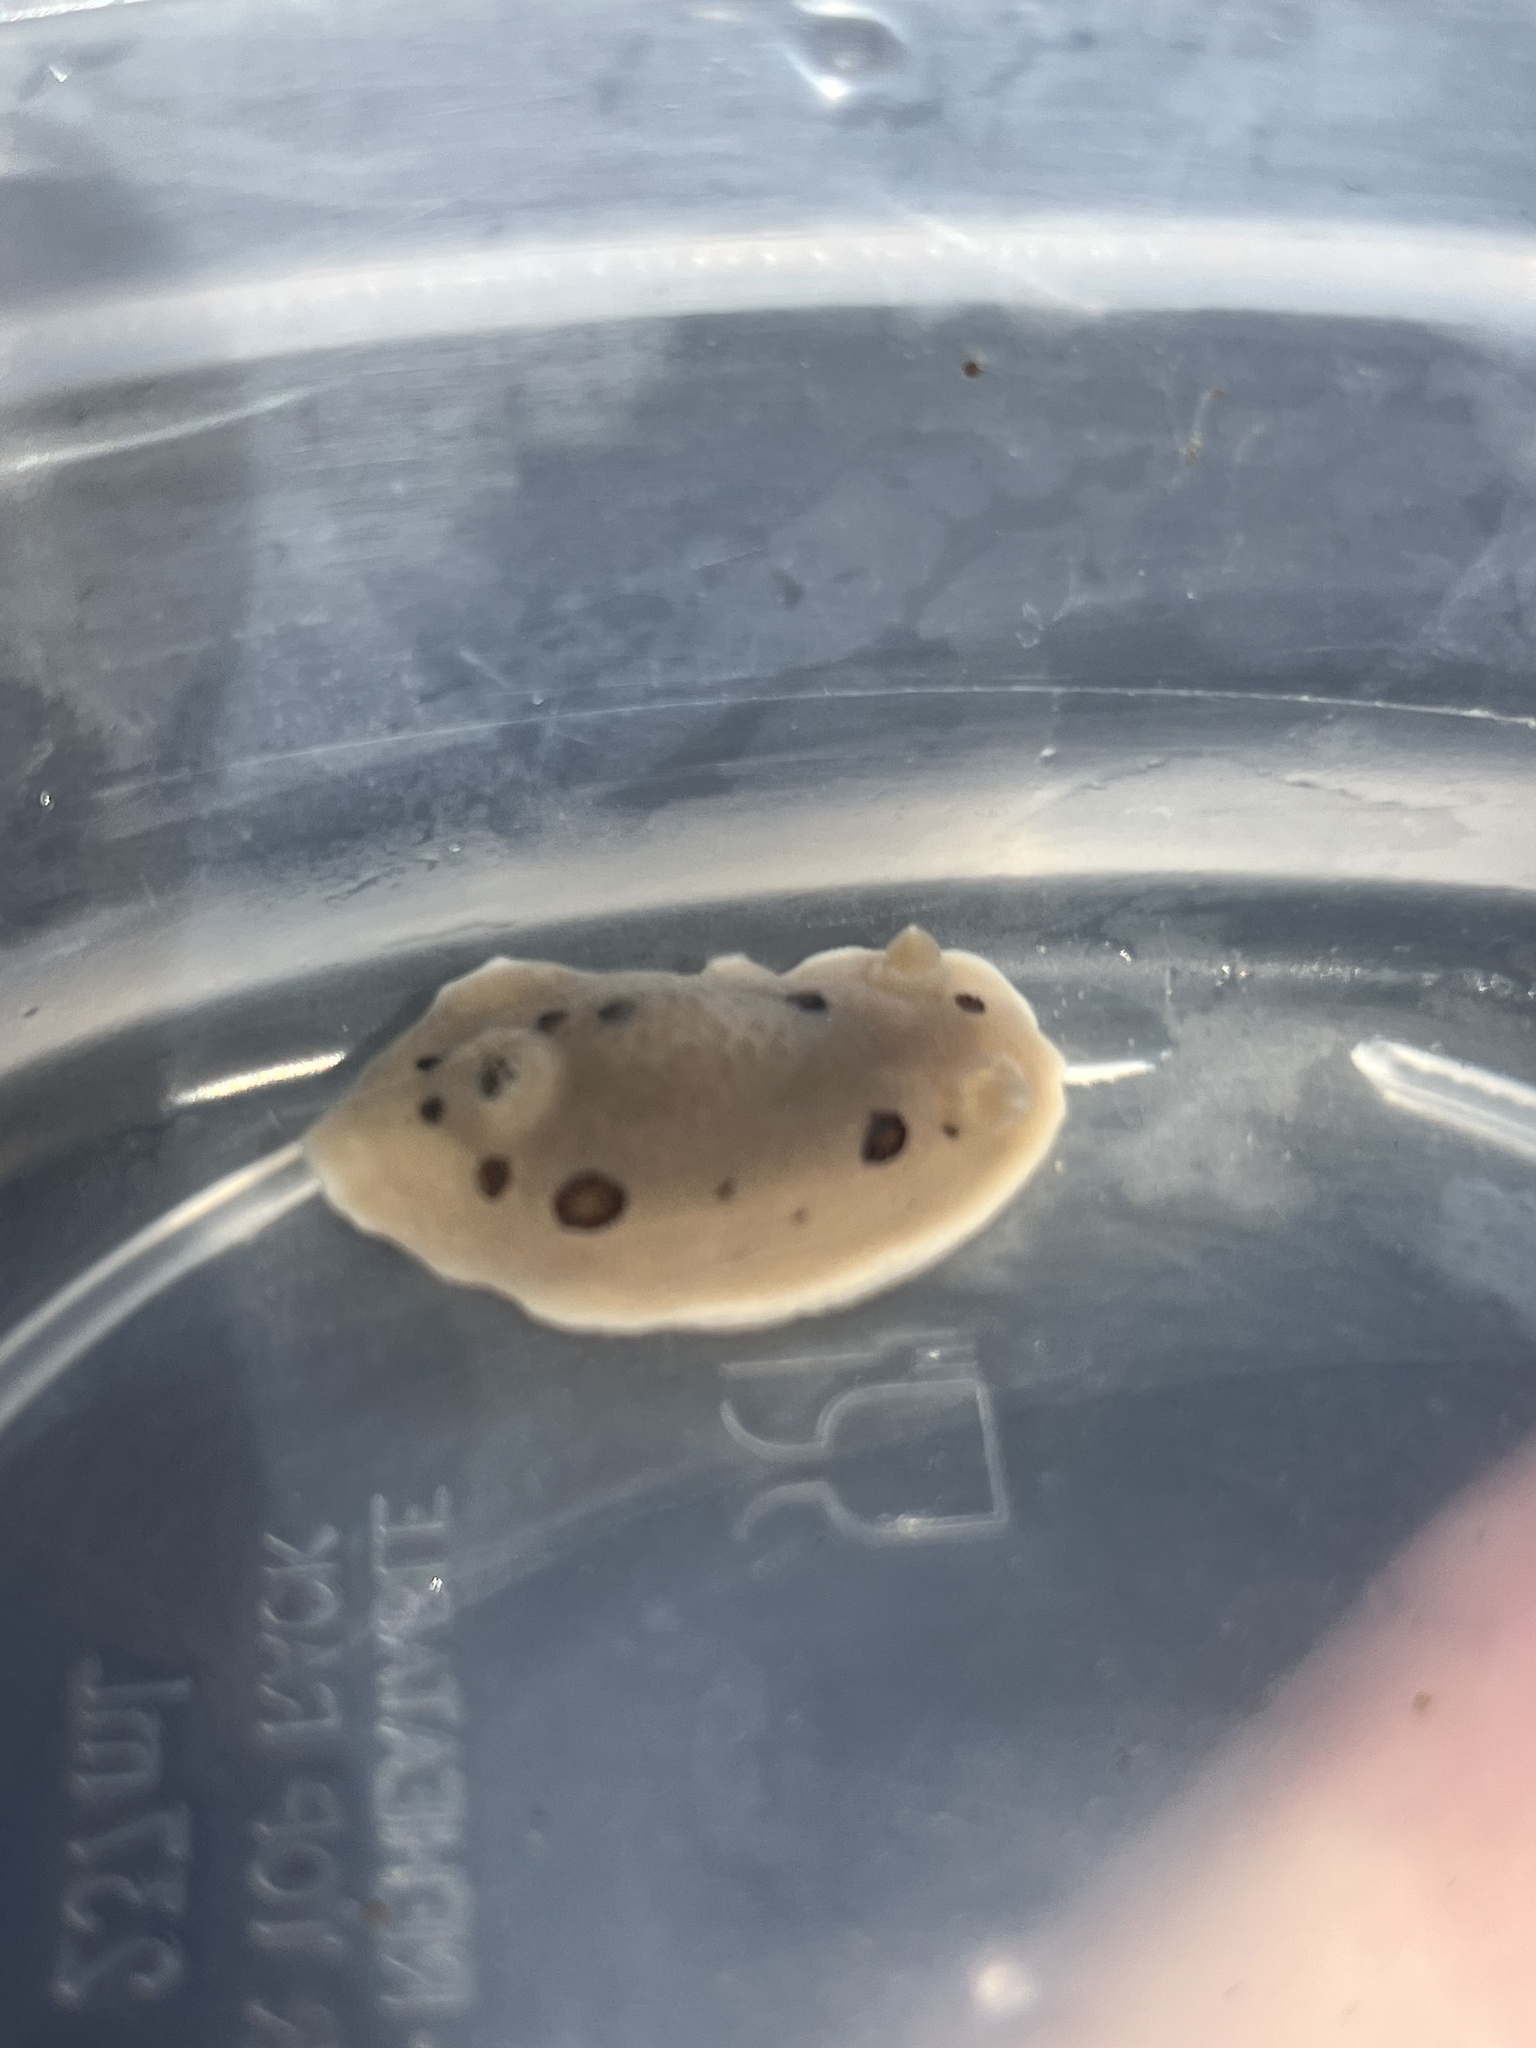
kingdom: Animalia
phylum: Mollusca
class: Gastropoda
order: Nudibranchia
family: Discodorididae
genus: Diaulula
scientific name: Diaulula sandiegensis
